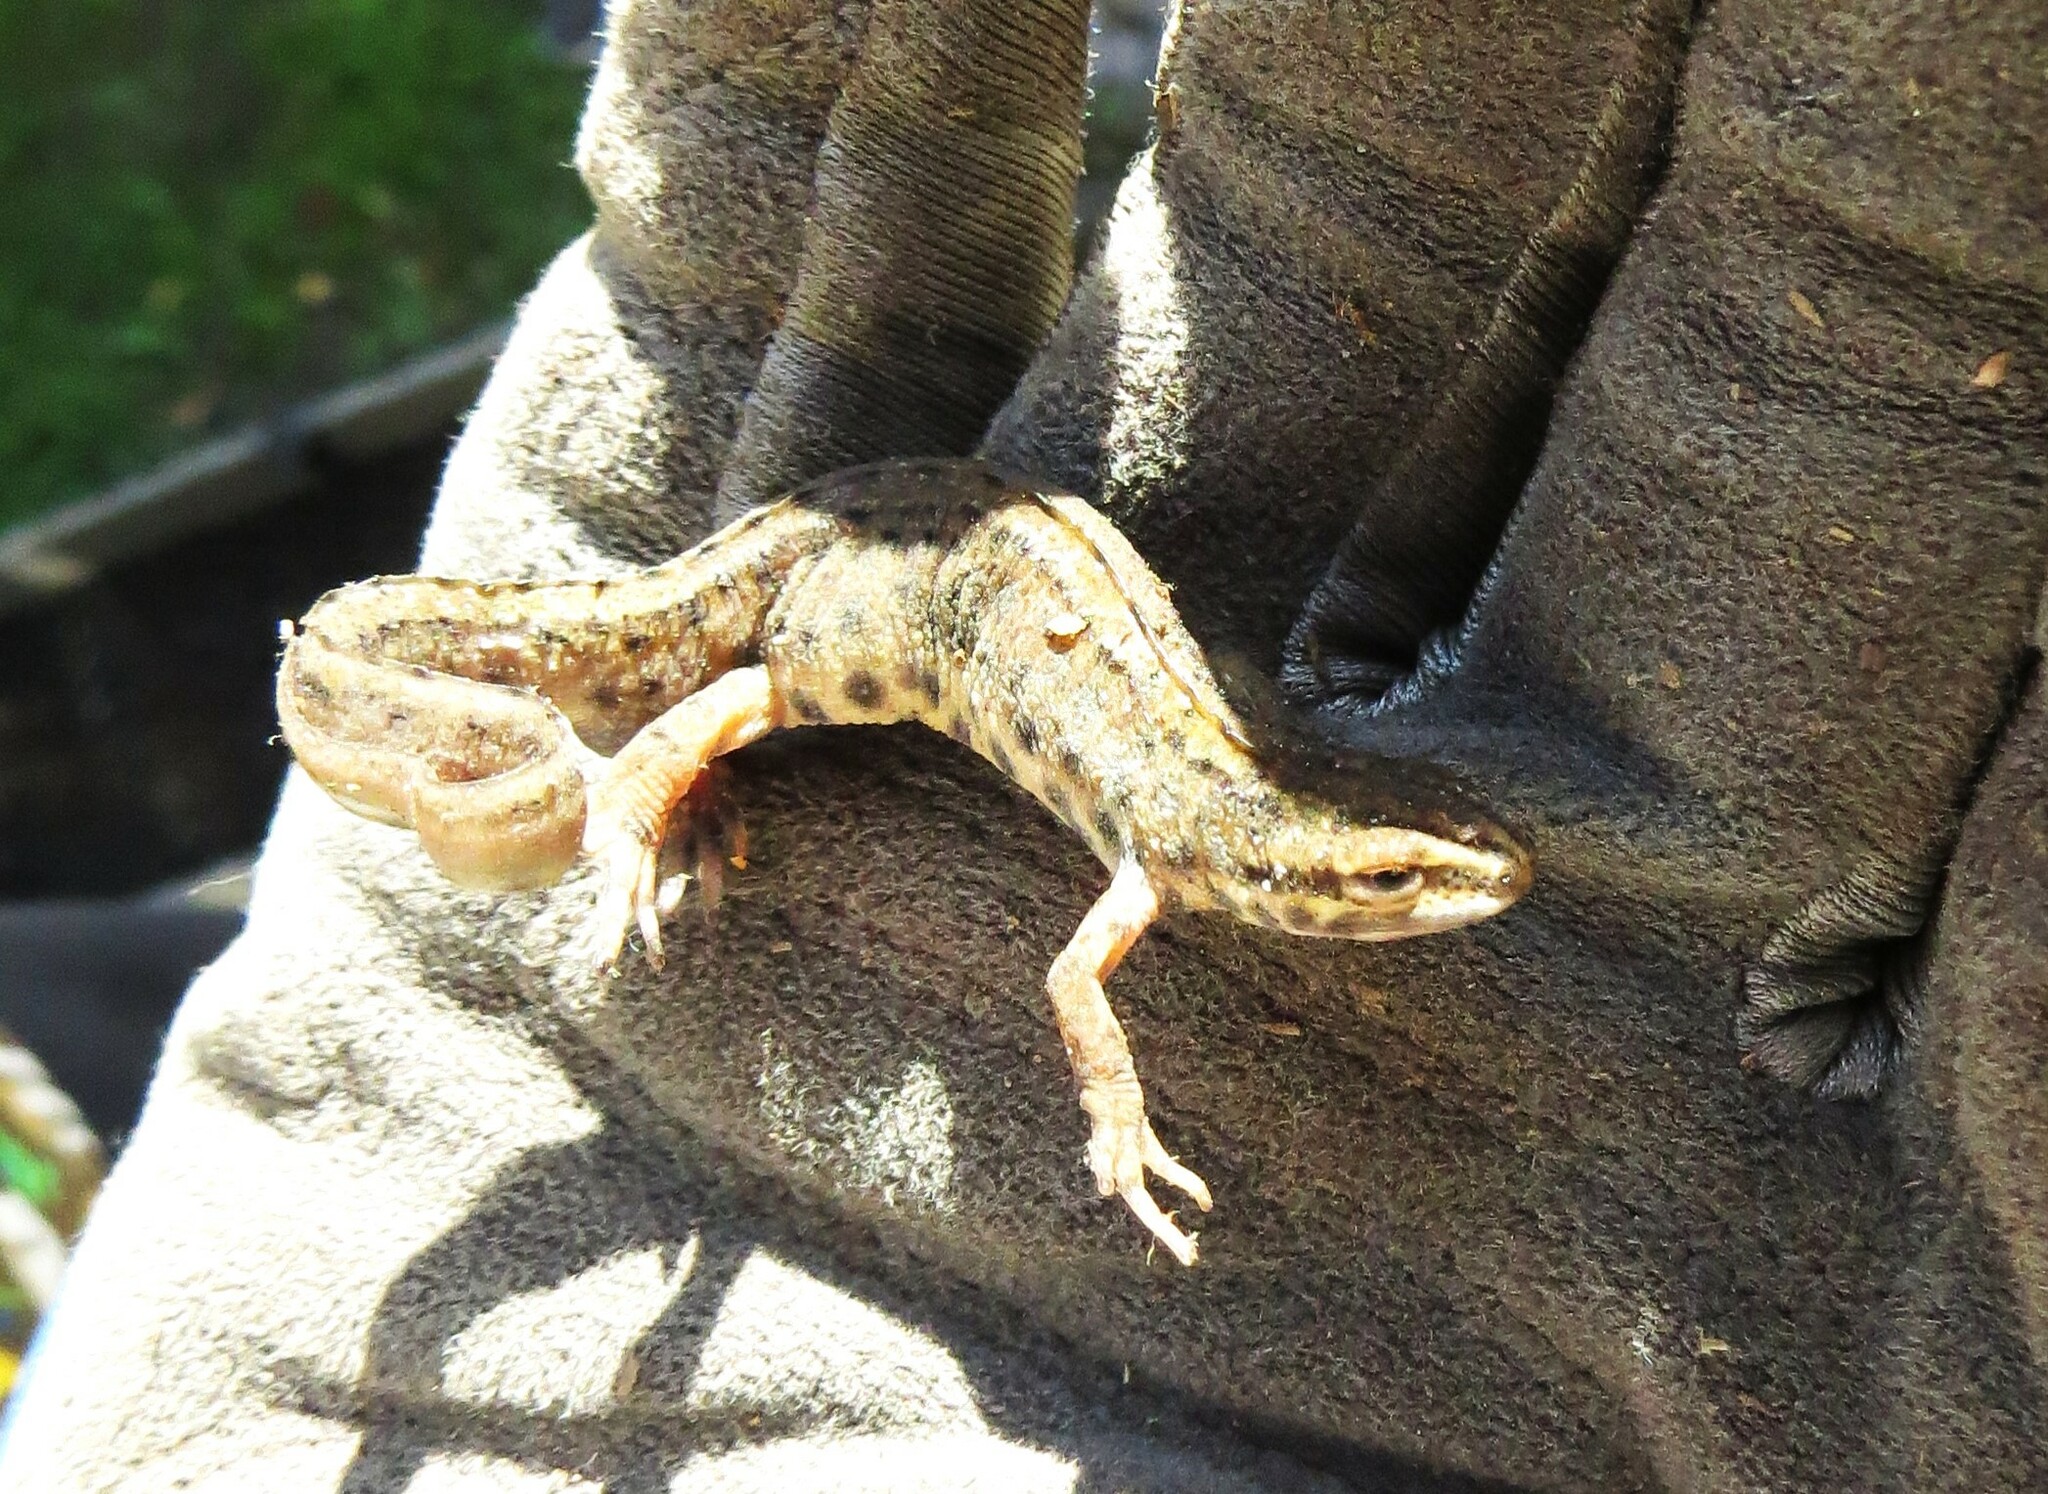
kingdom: Animalia
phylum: Chordata
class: Amphibia
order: Caudata
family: Salamandridae
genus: Lissotriton
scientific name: Lissotriton vulgaris
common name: Smooth newt
